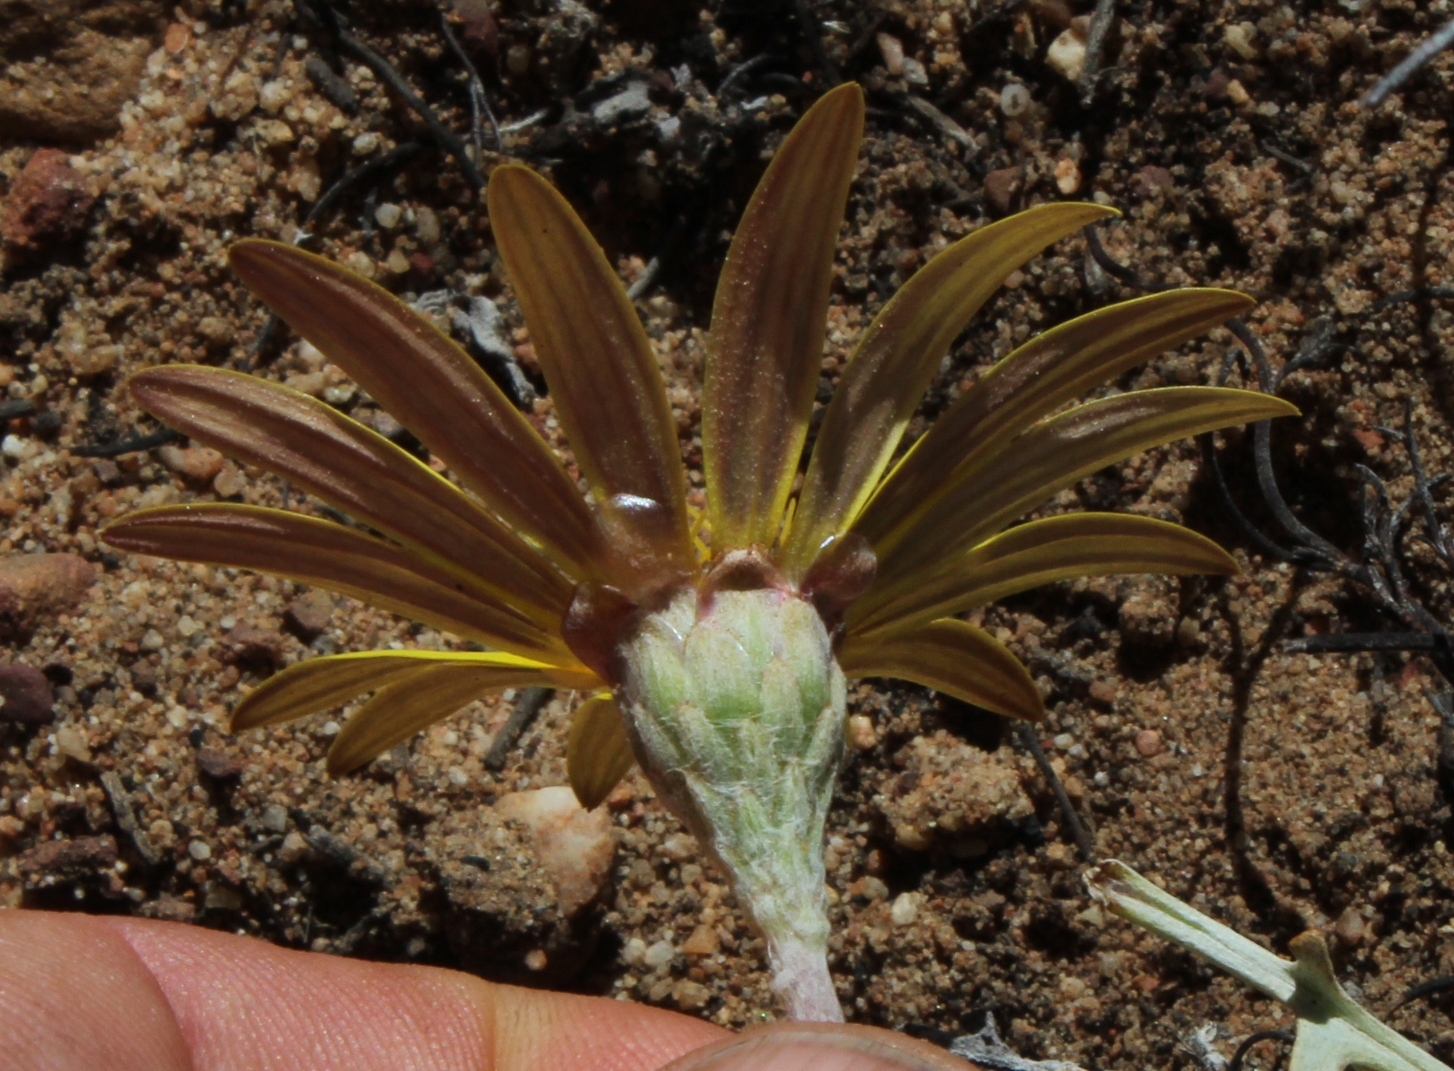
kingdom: Plantae
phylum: Tracheophyta
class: Magnoliopsida
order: Asterales
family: Asteraceae
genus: Arctotis
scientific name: Arctotis adpressa
